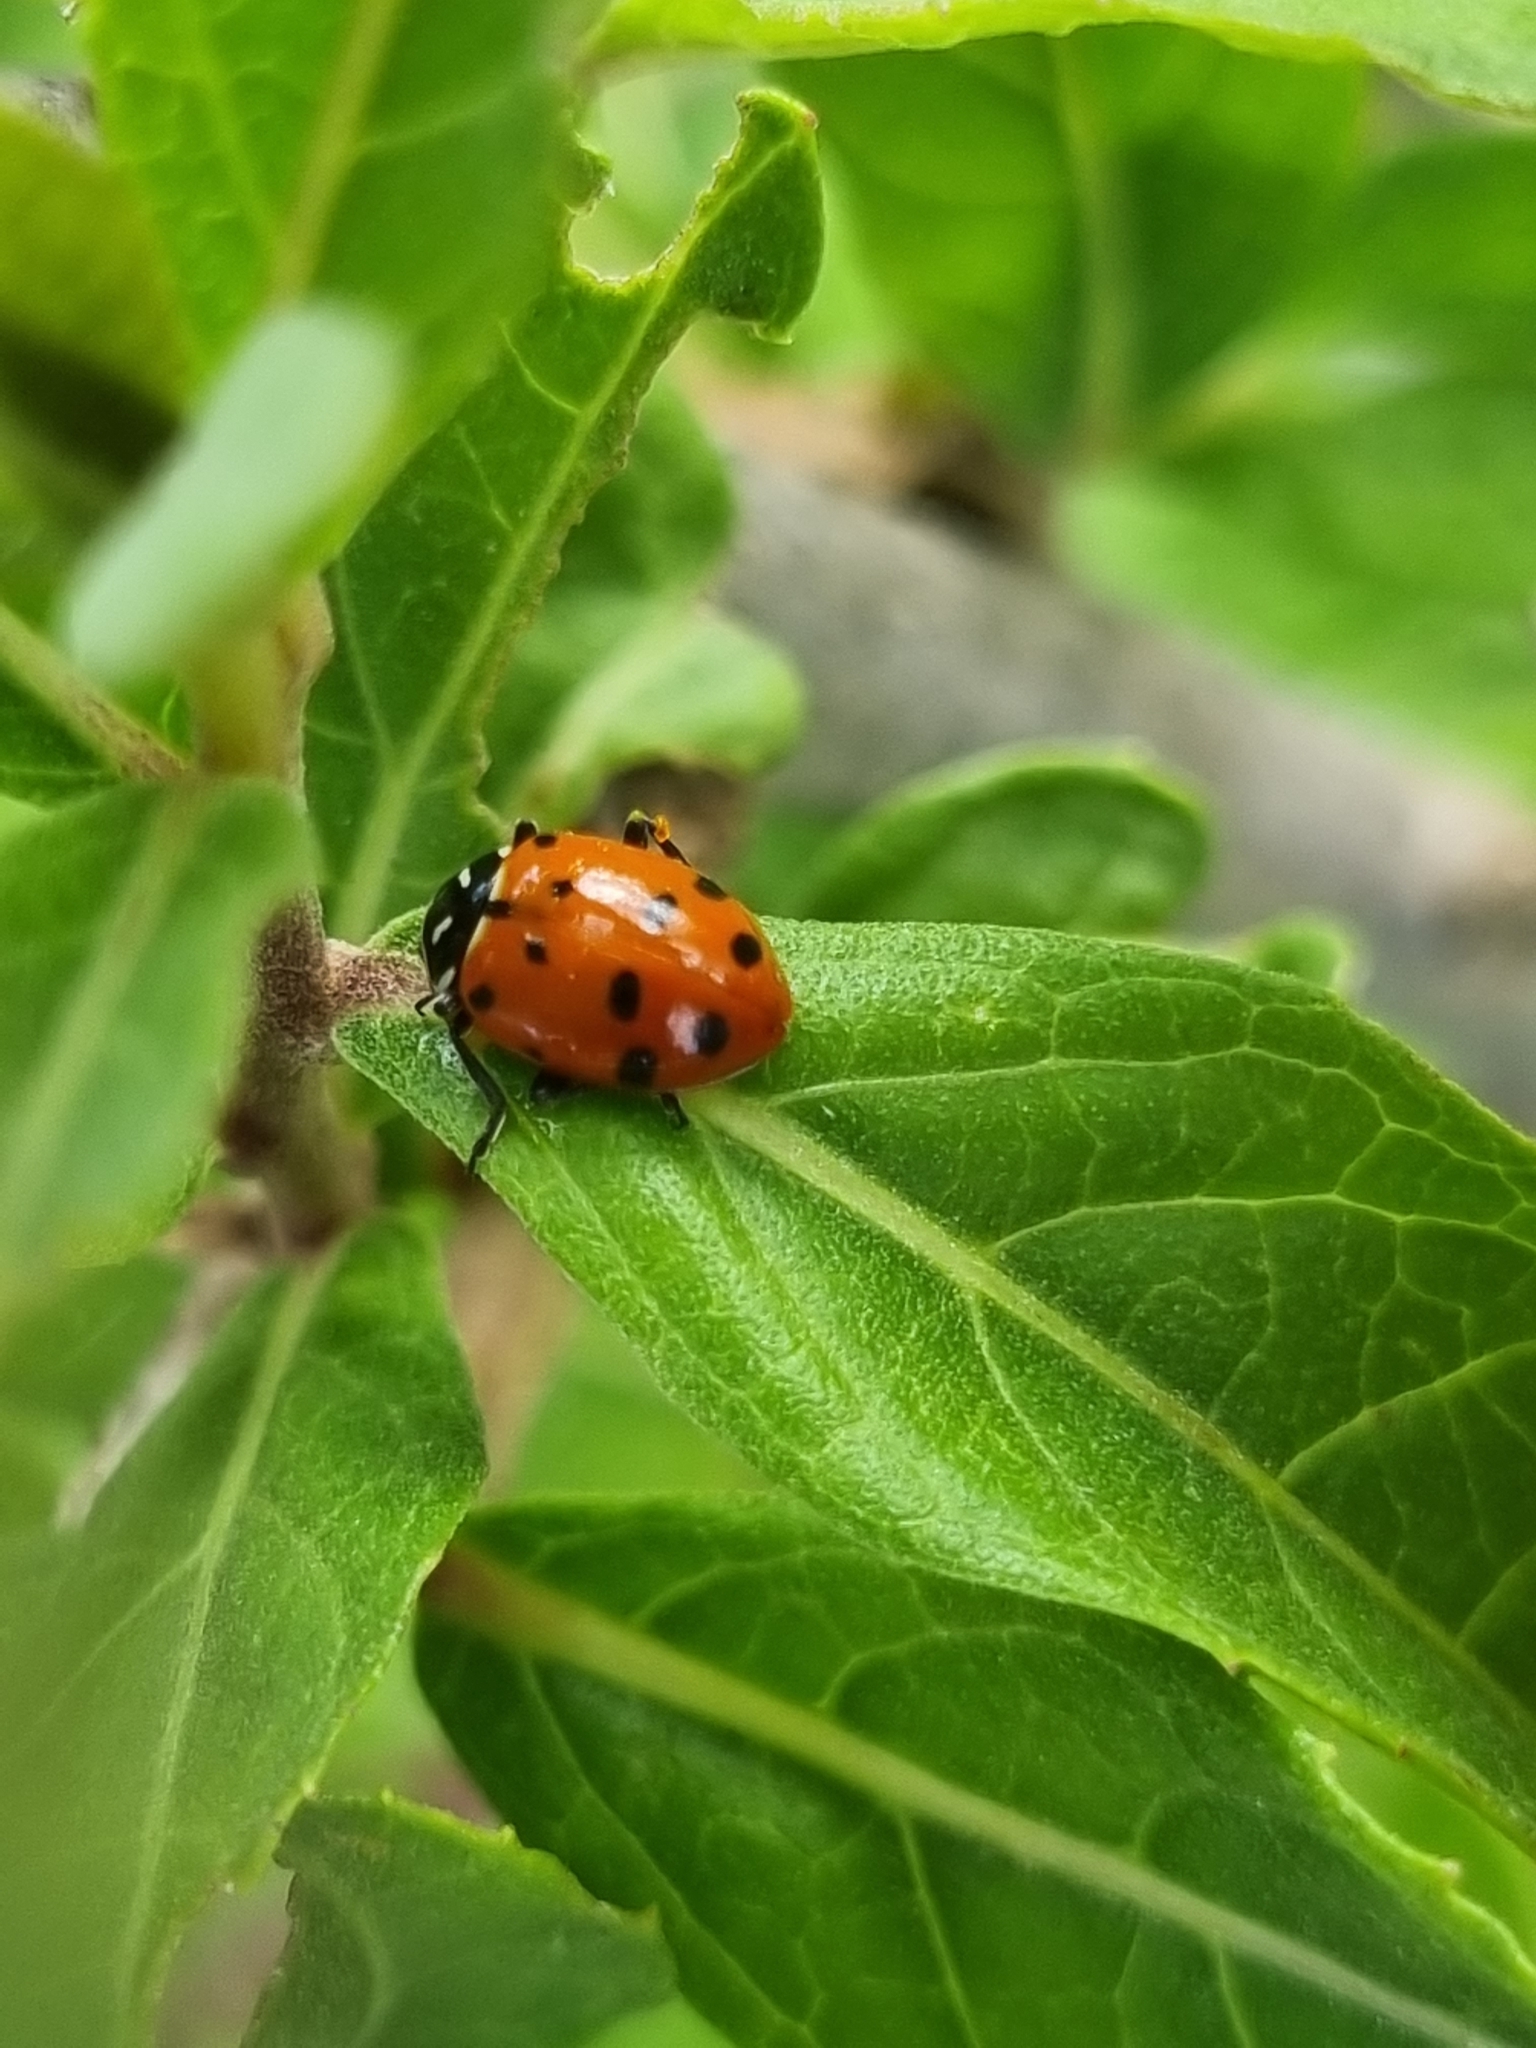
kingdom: Animalia
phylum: Arthropoda
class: Insecta
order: Coleoptera
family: Coccinellidae
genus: Hippodamia
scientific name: Hippodamia convergens
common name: Convergent lady beetle
